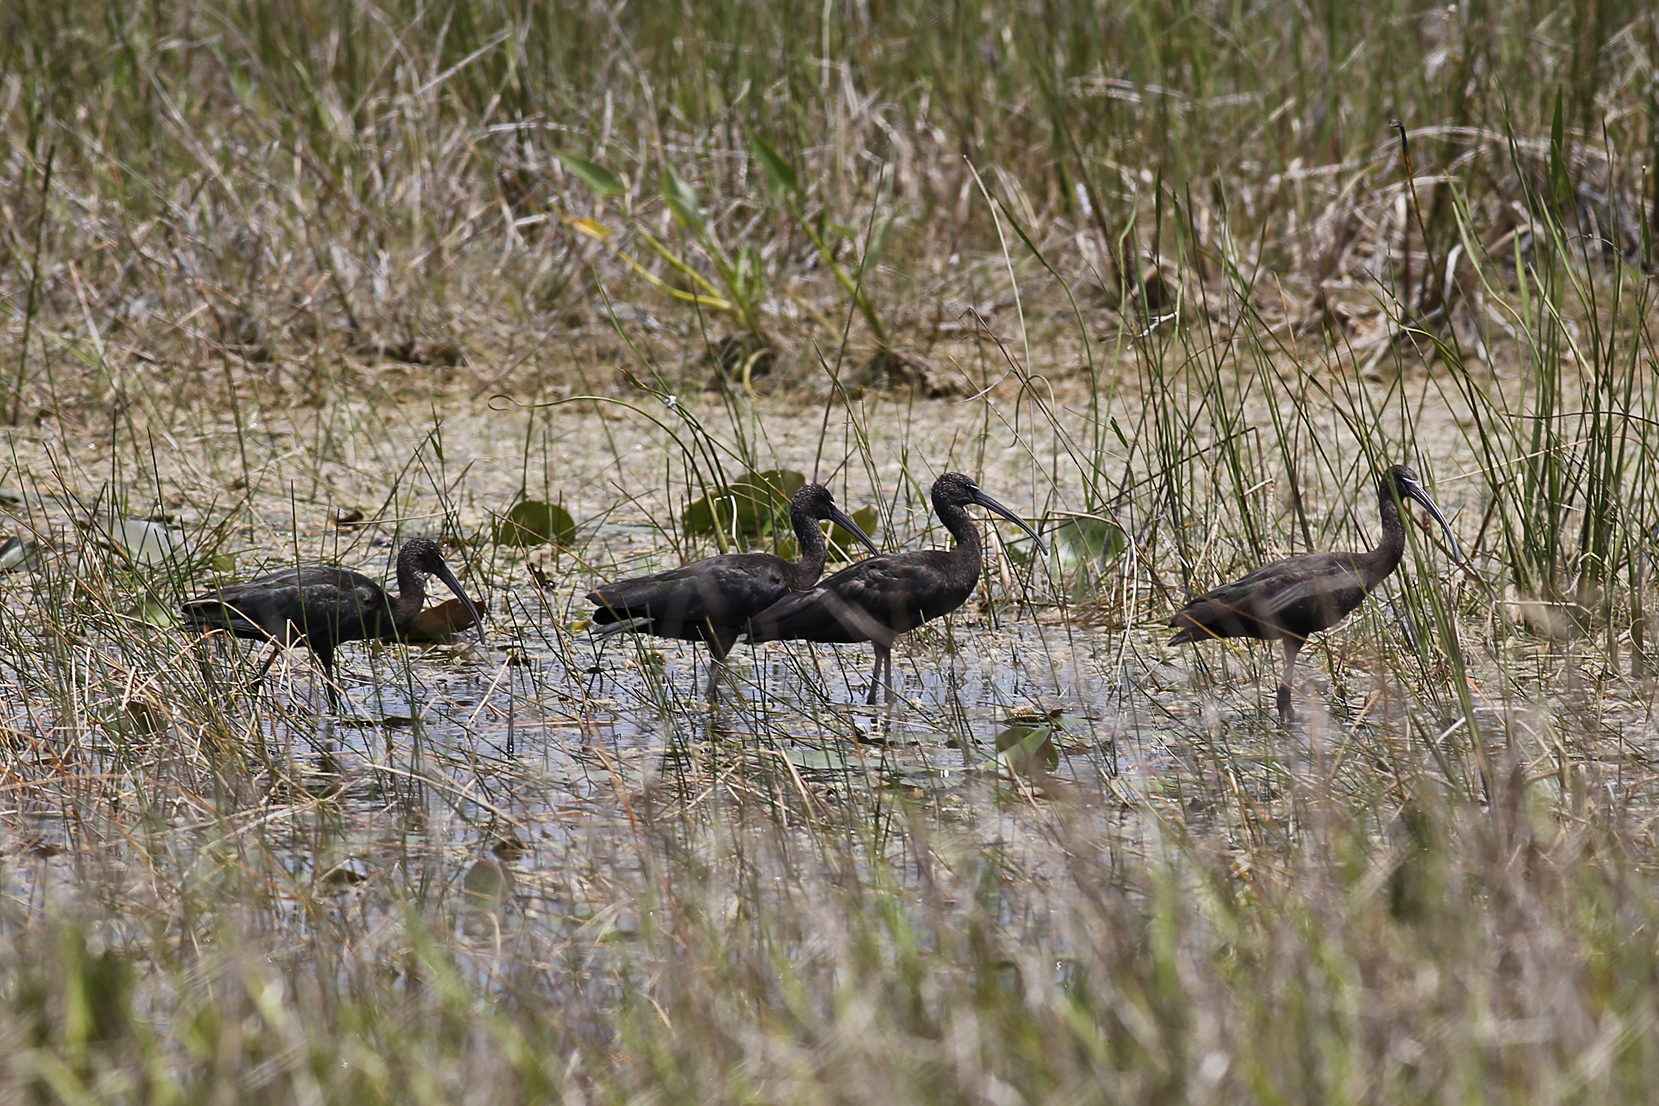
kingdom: Animalia
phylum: Chordata
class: Aves
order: Pelecaniformes
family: Threskiornithidae
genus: Plegadis
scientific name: Plegadis falcinellus
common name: Glossy ibis
